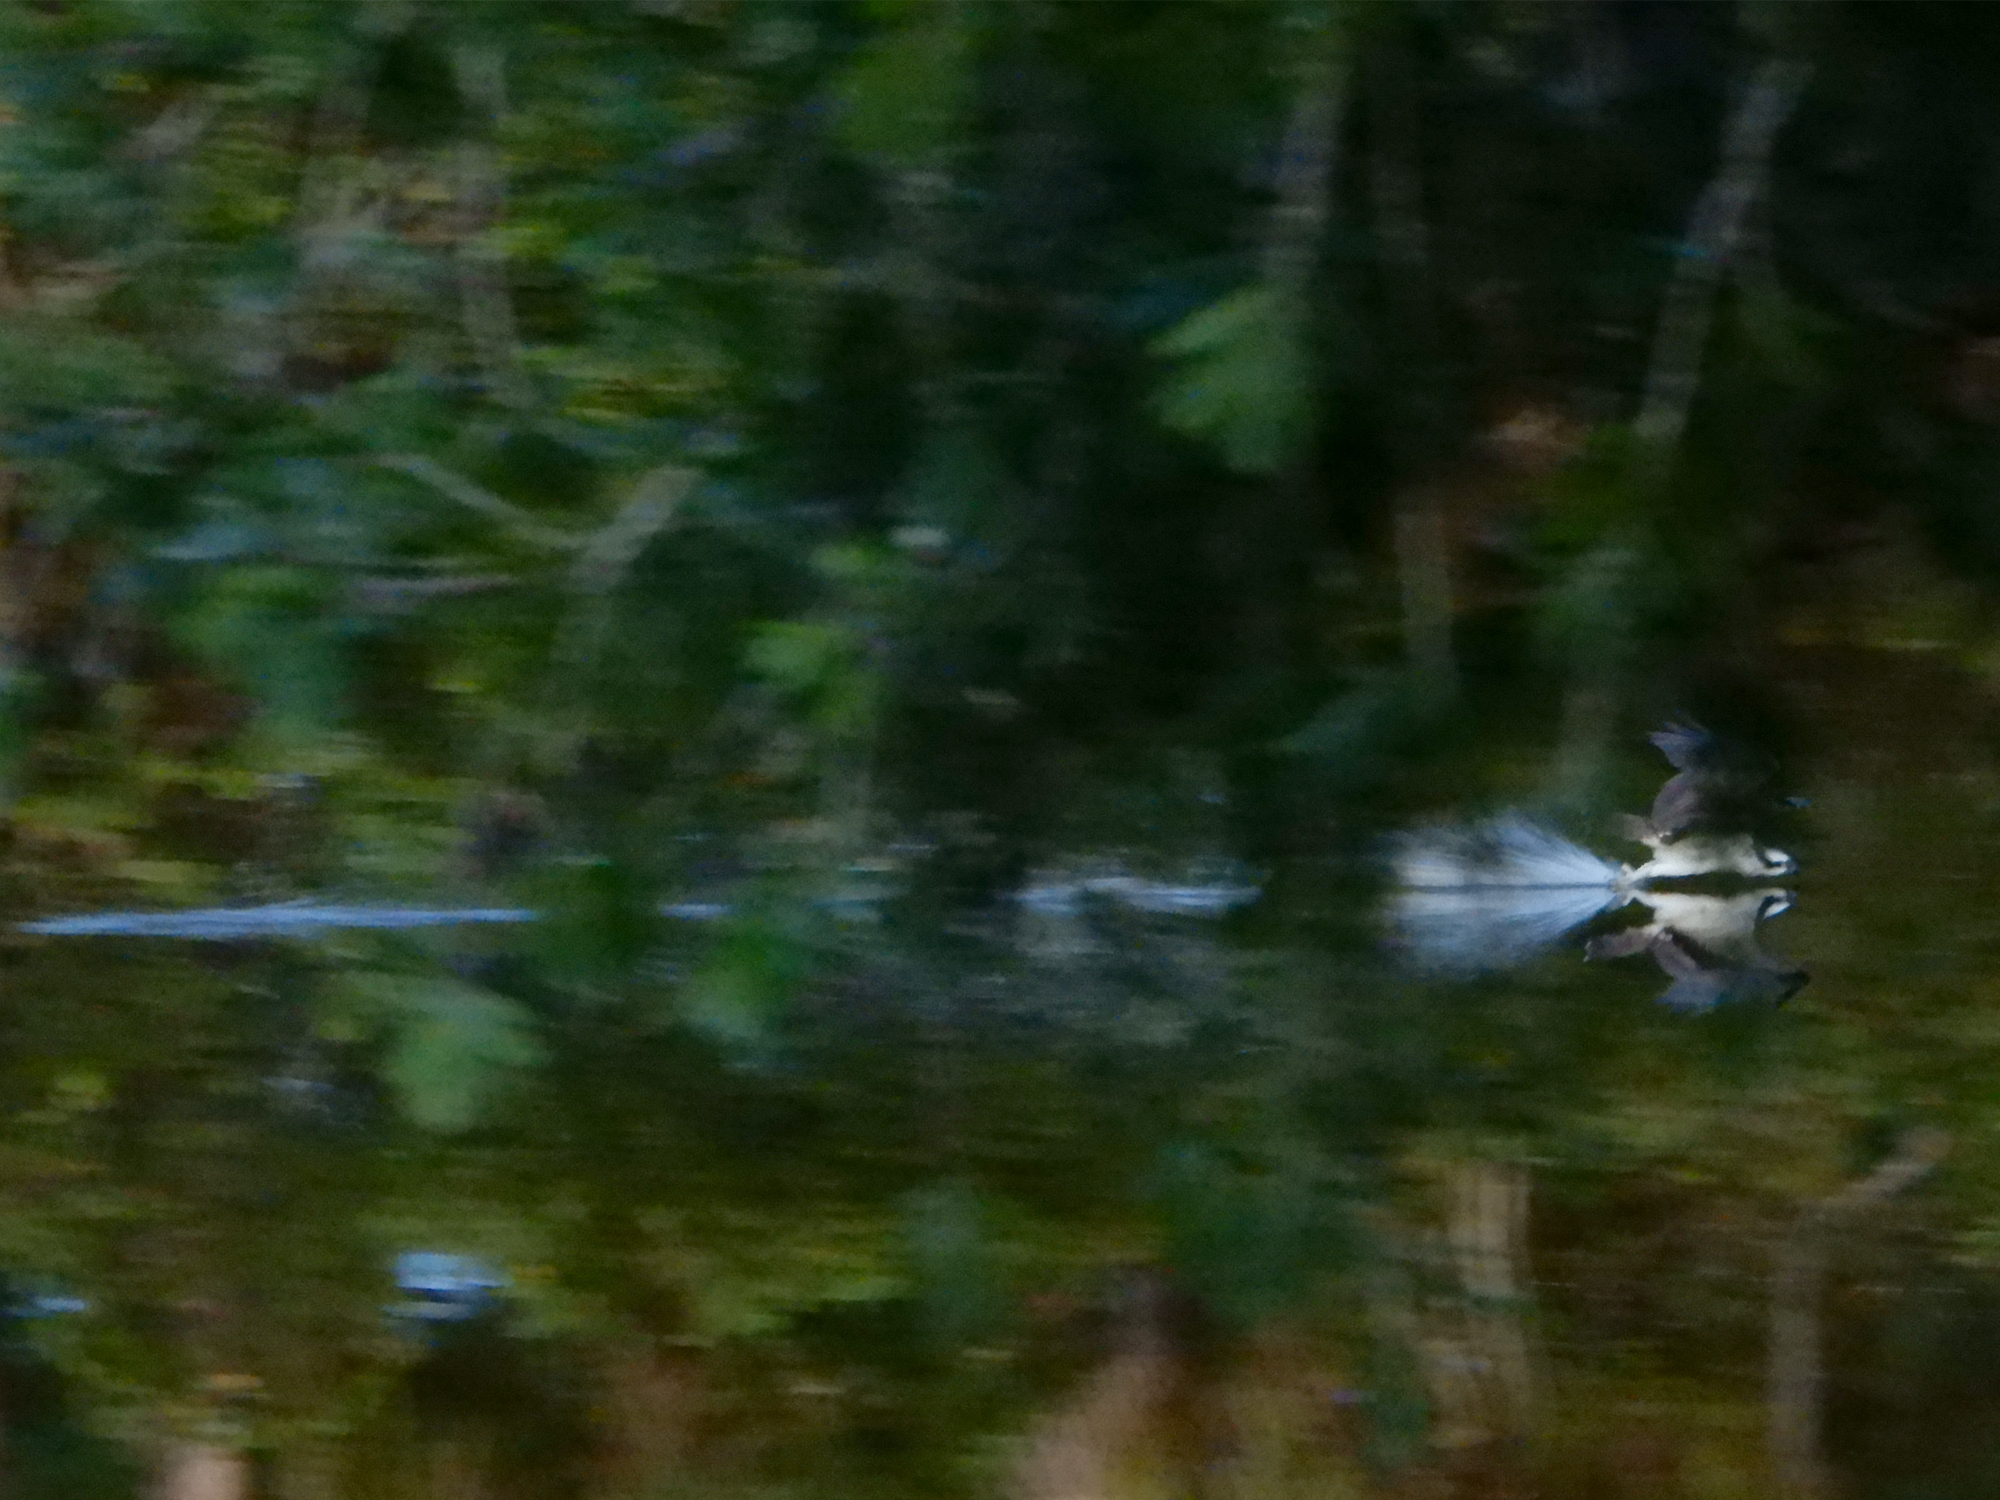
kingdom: Animalia
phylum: Chordata
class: Aves
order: Accipitriformes
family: Pandionidae
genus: Pandion
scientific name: Pandion haliaetus
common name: Osprey
